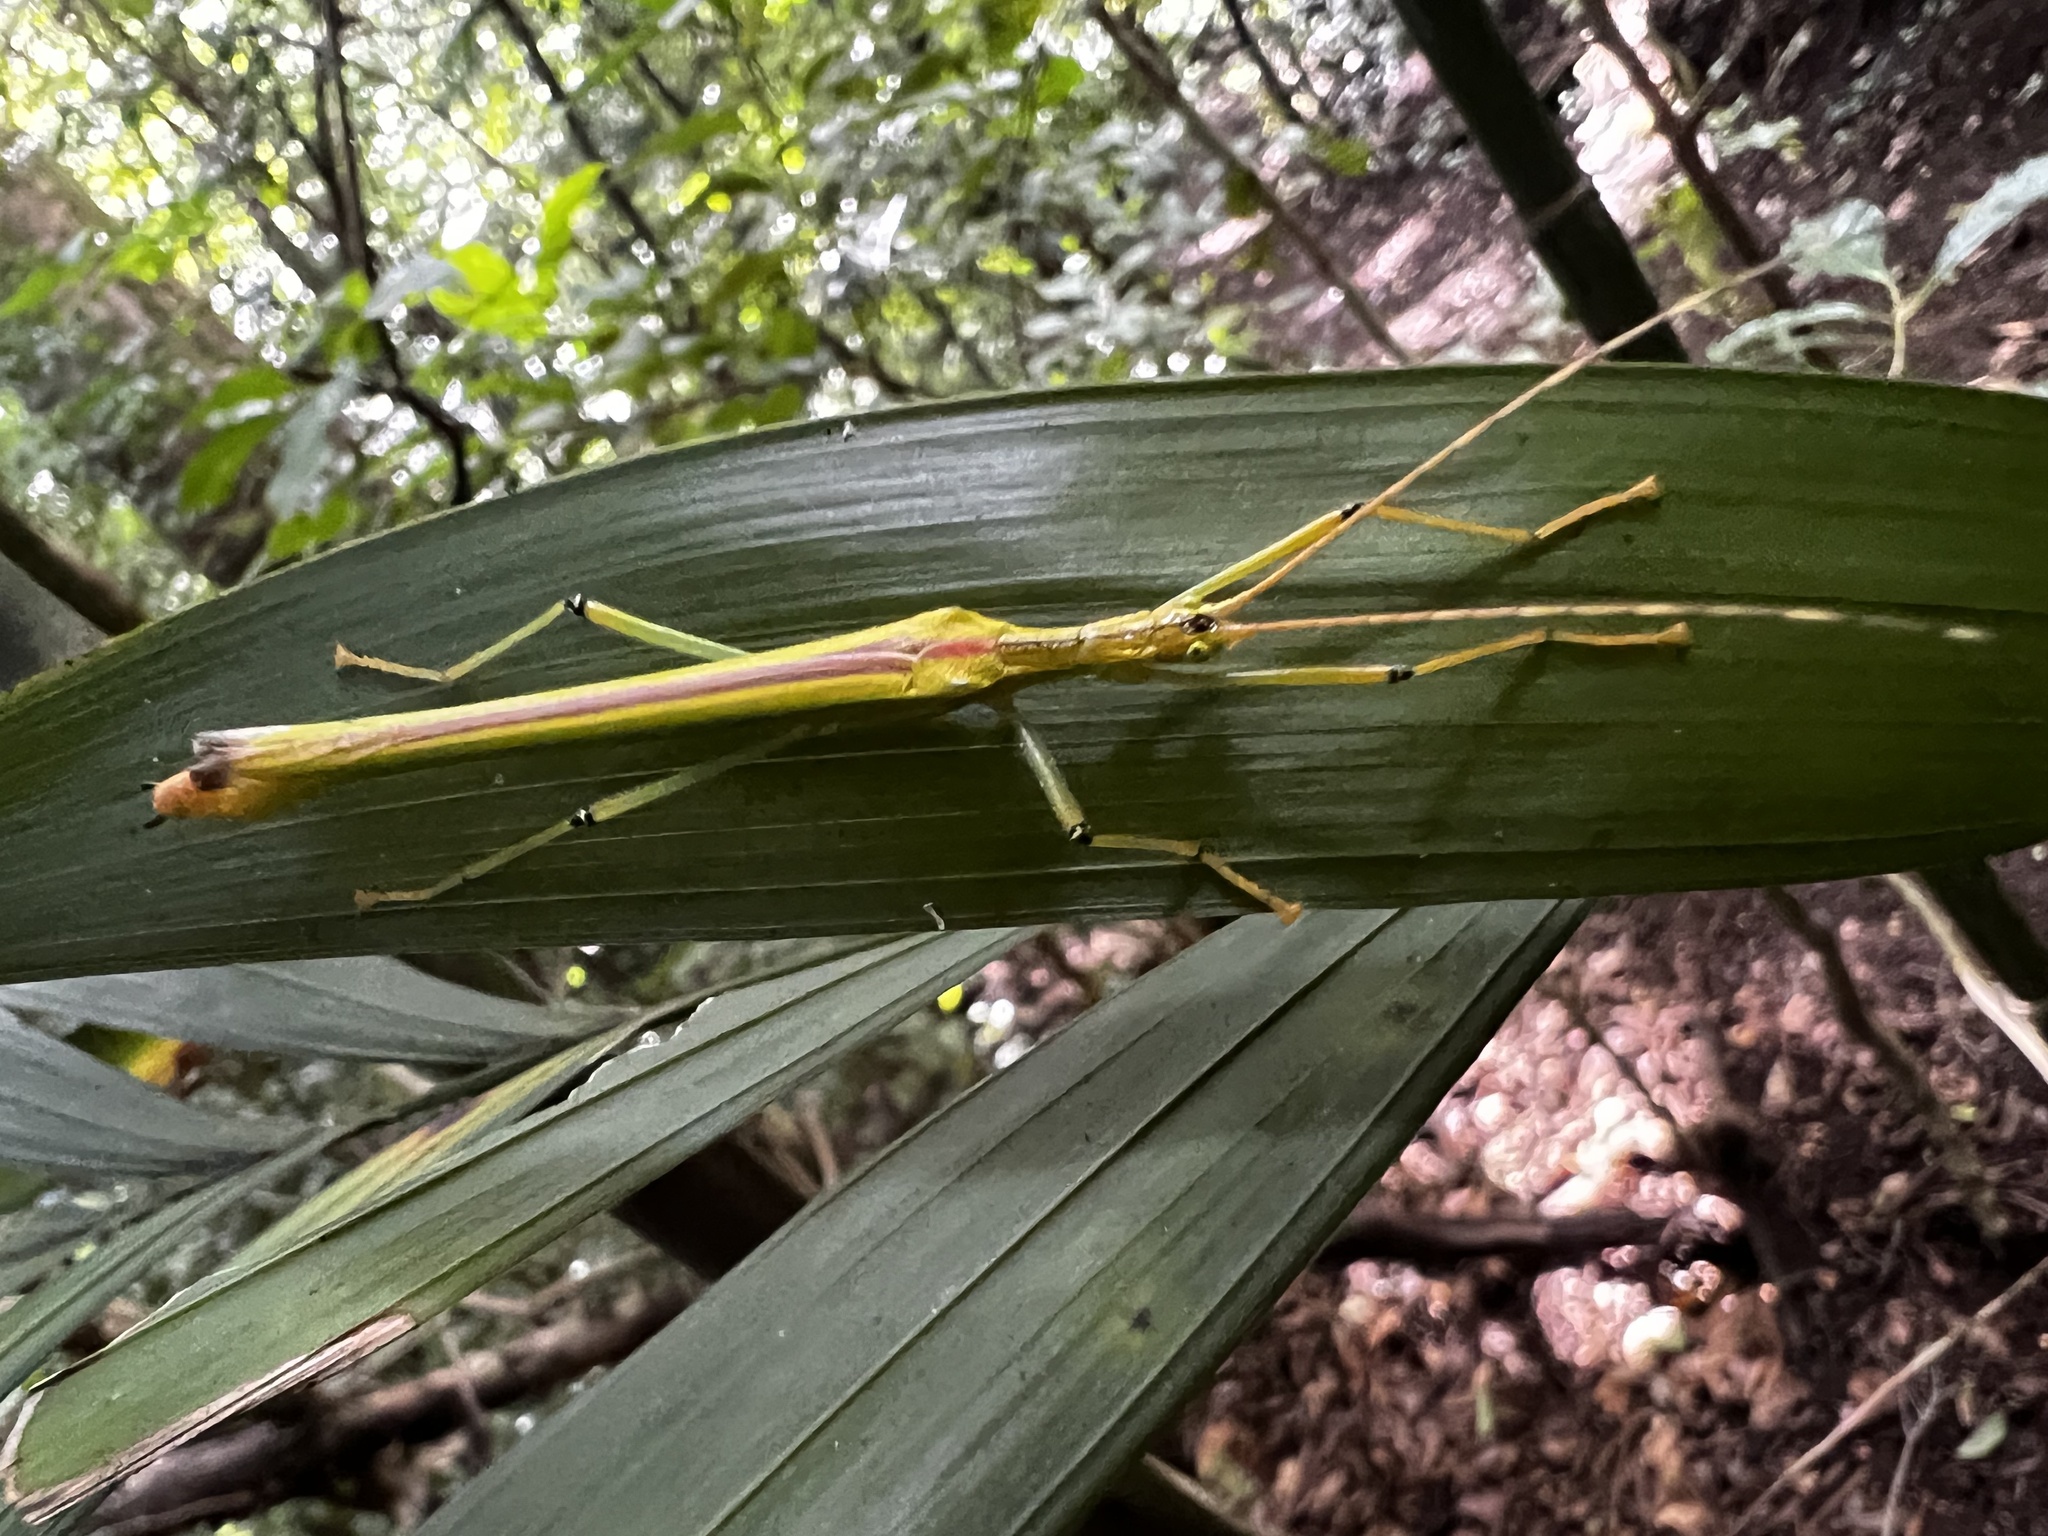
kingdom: Animalia
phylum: Arthropoda
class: Insecta
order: Phasmida
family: Pseudophasmatidae
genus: Anthericonia
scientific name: Anthericonia anketeschke
